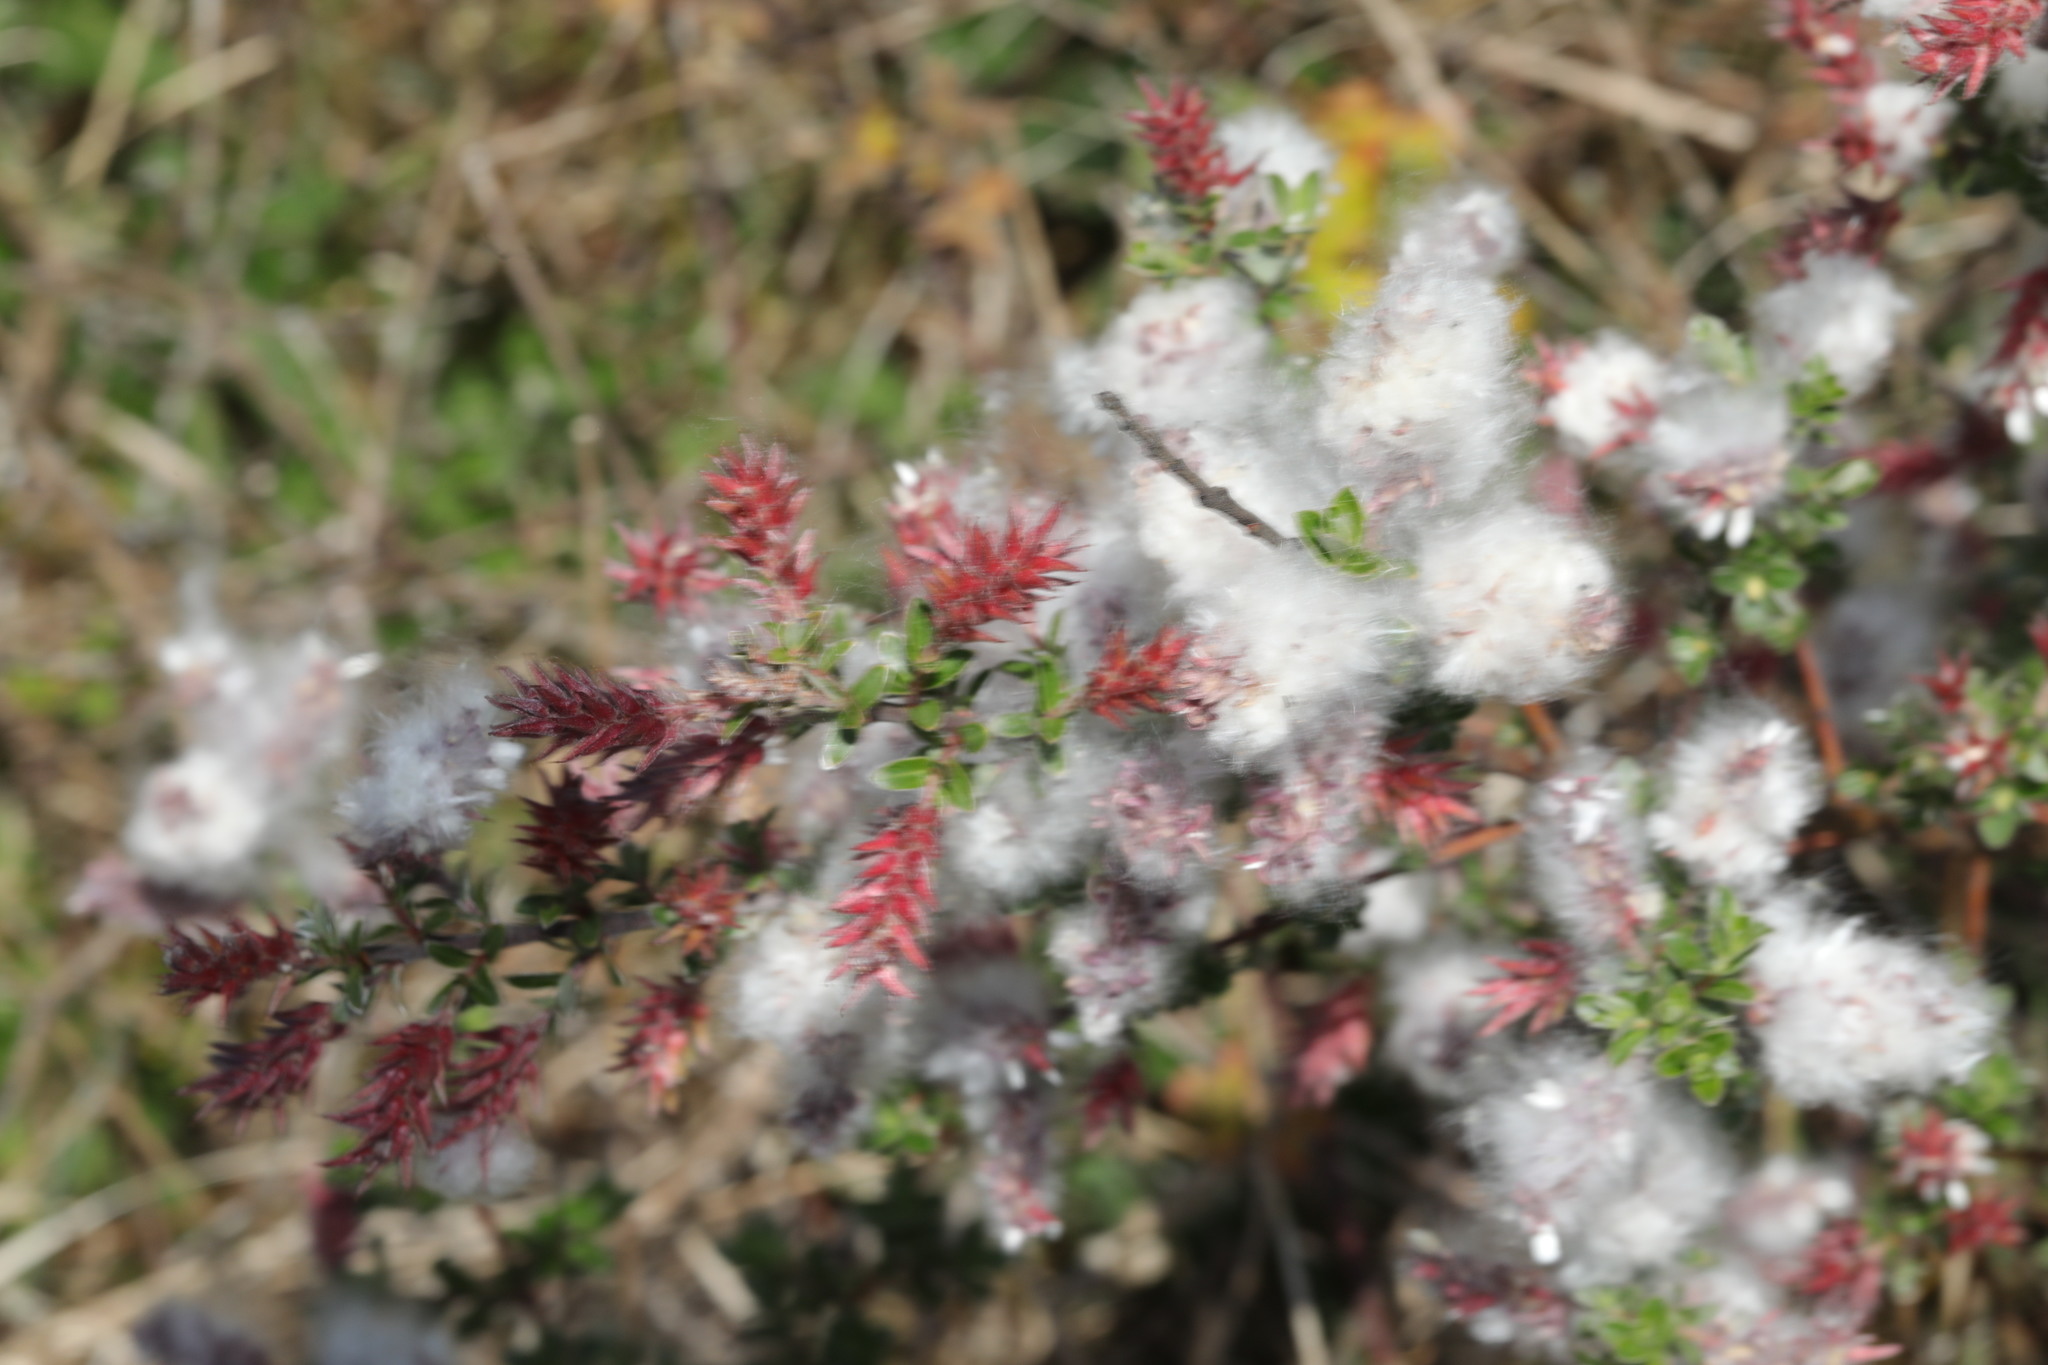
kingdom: Plantae
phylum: Tracheophyta
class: Magnoliopsida
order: Malpighiales
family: Salicaceae
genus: Salix
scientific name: Salix repens
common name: Creeping willow
